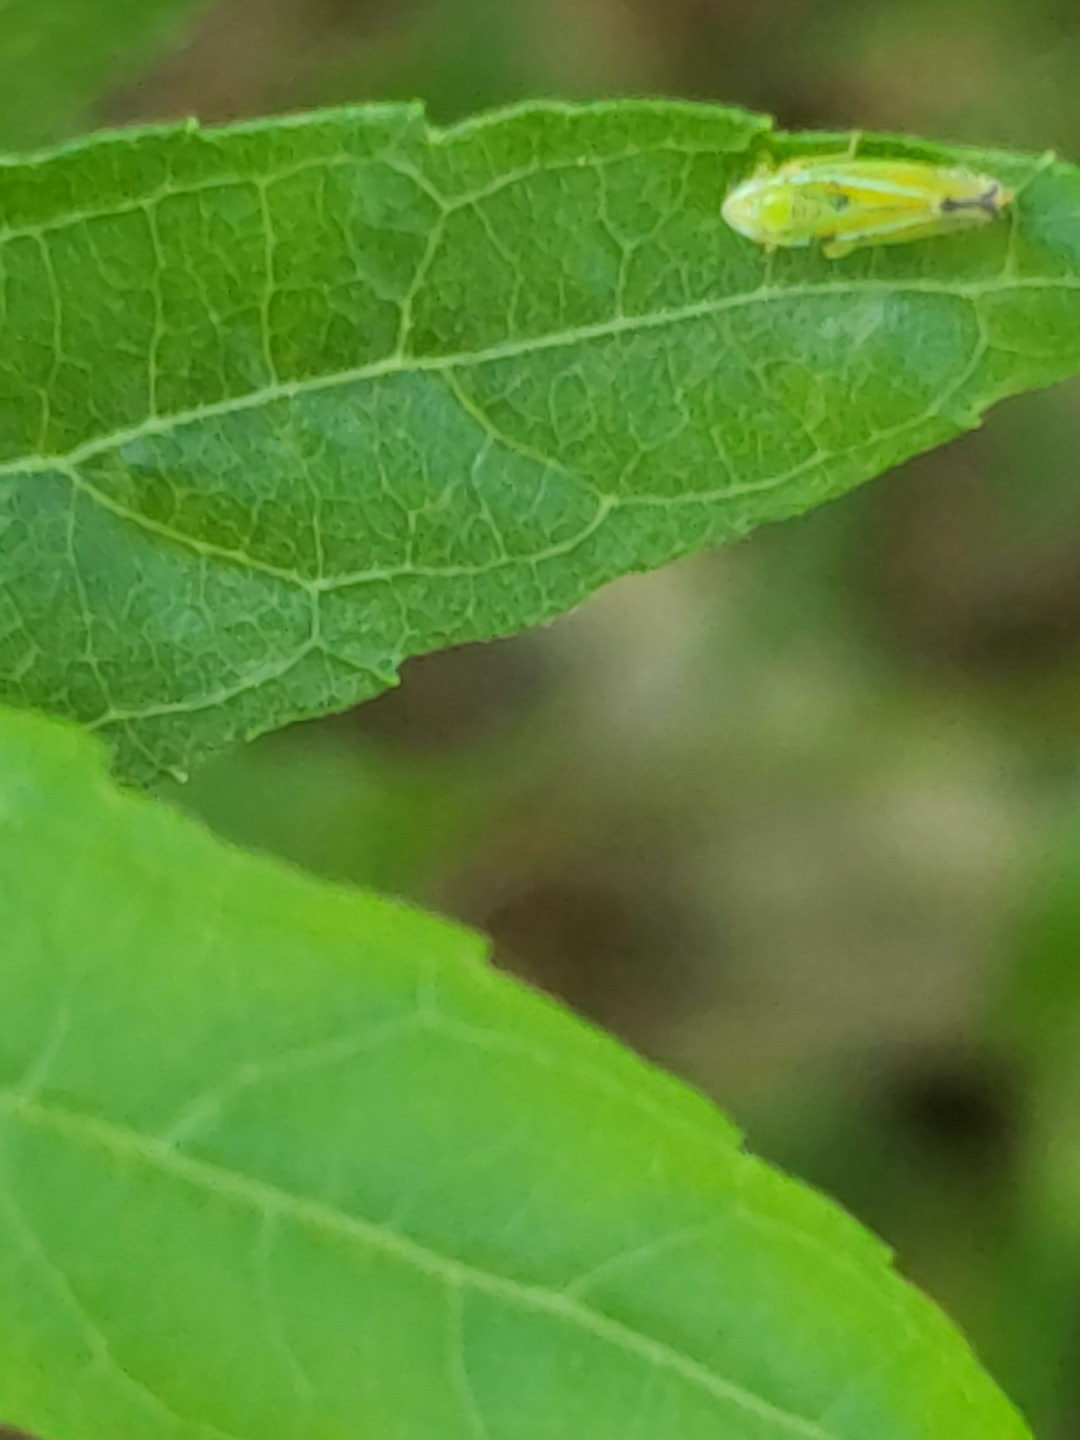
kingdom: Animalia
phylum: Arthropoda
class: Insecta
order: Hemiptera
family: Cicadellidae
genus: Graphocephala
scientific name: Graphocephala versuta
